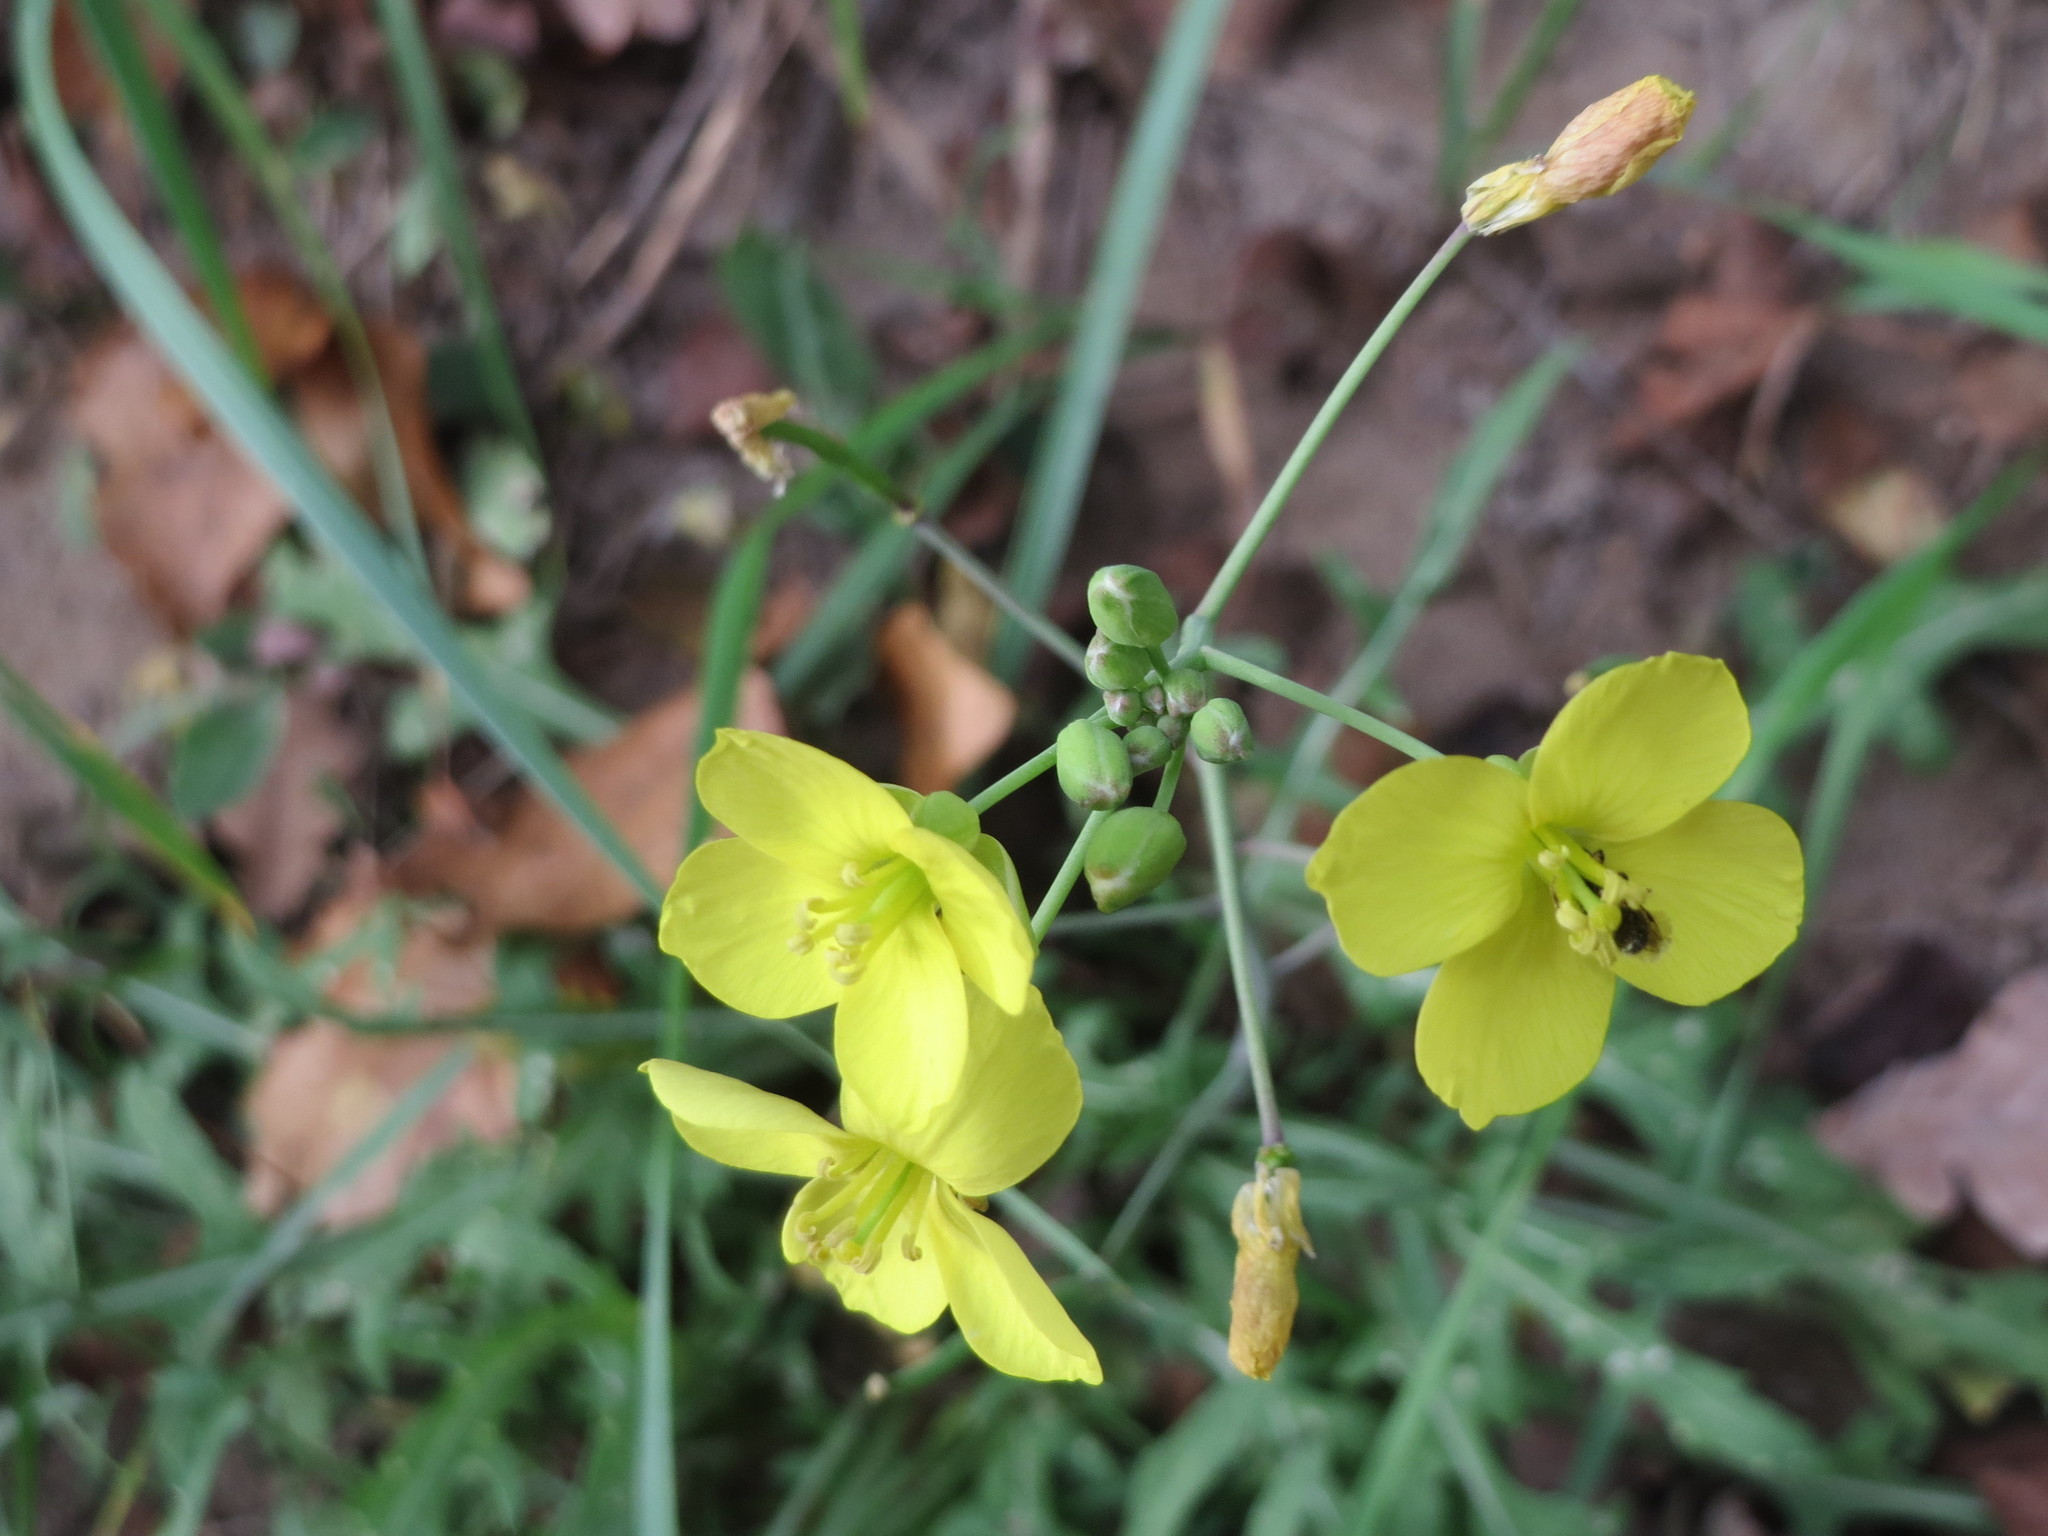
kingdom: Plantae
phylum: Tracheophyta
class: Magnoliopsida
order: Brassicales
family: Brassicaceae
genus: Diplotaxis
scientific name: Diplotaxis tenuifolia
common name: Perennial wall-rocket
